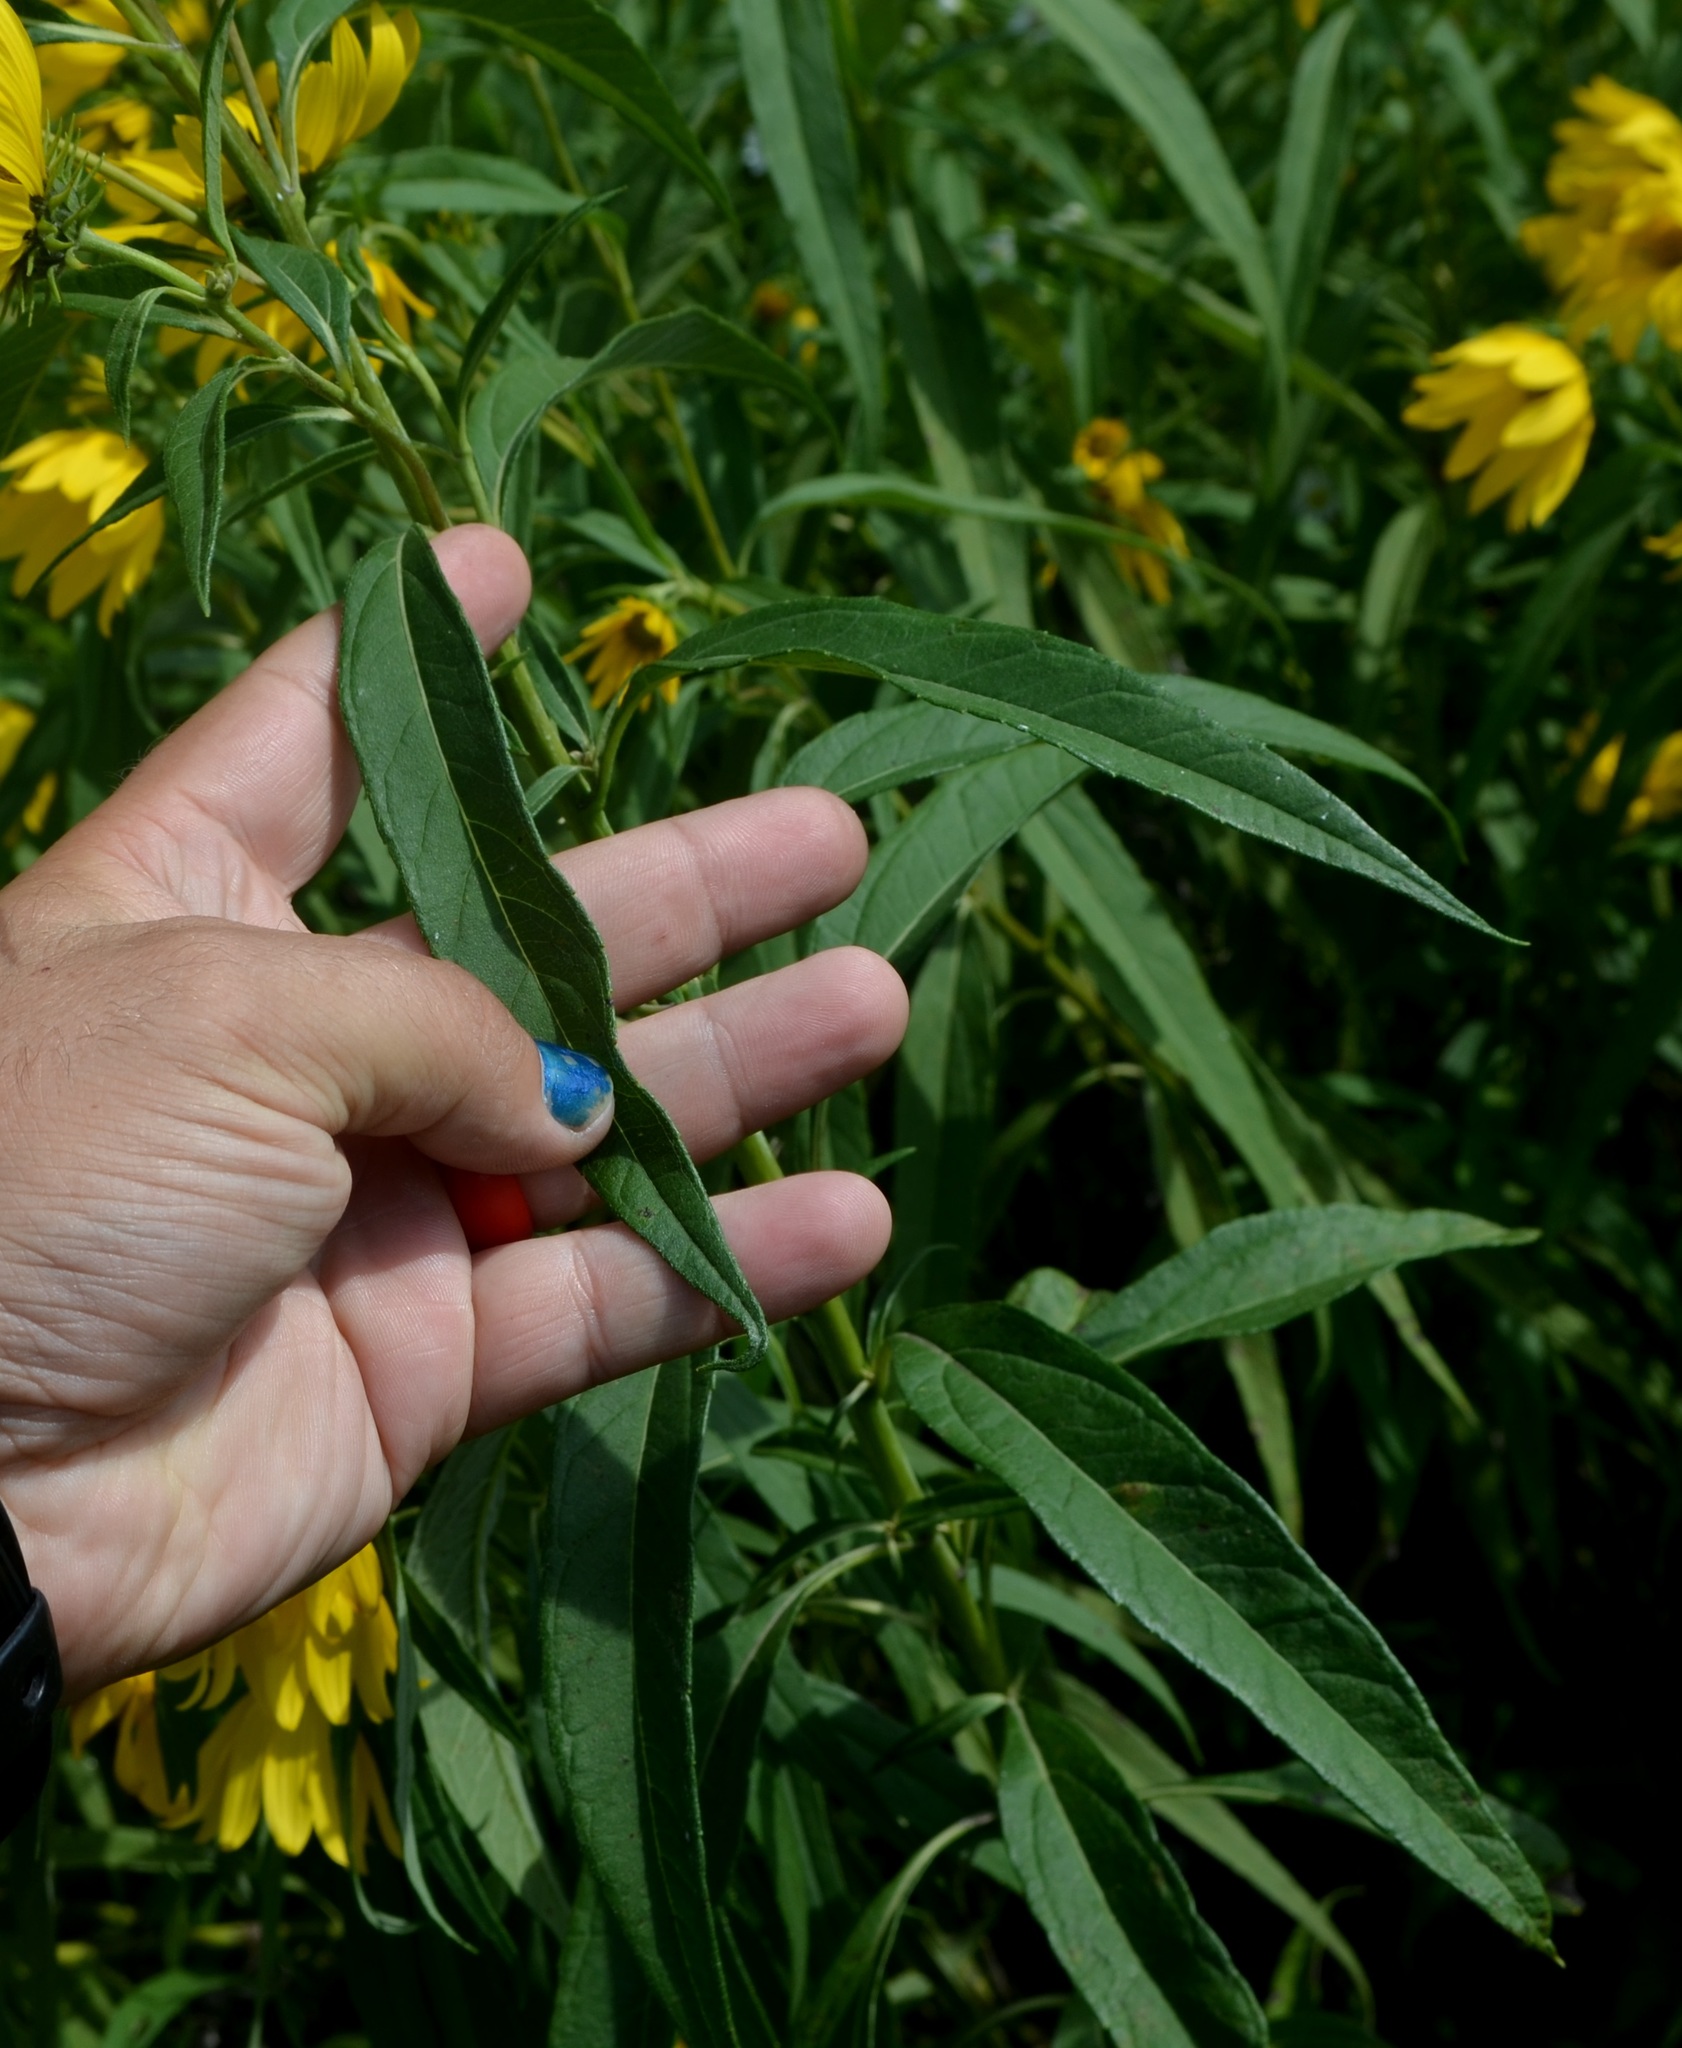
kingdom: Plantae
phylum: Tracheophyta
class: Magnoliopsida
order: Asterales
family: Asteraceae
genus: Helianthus
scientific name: Helianthus tuberosus
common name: Jerusalem artichoke
